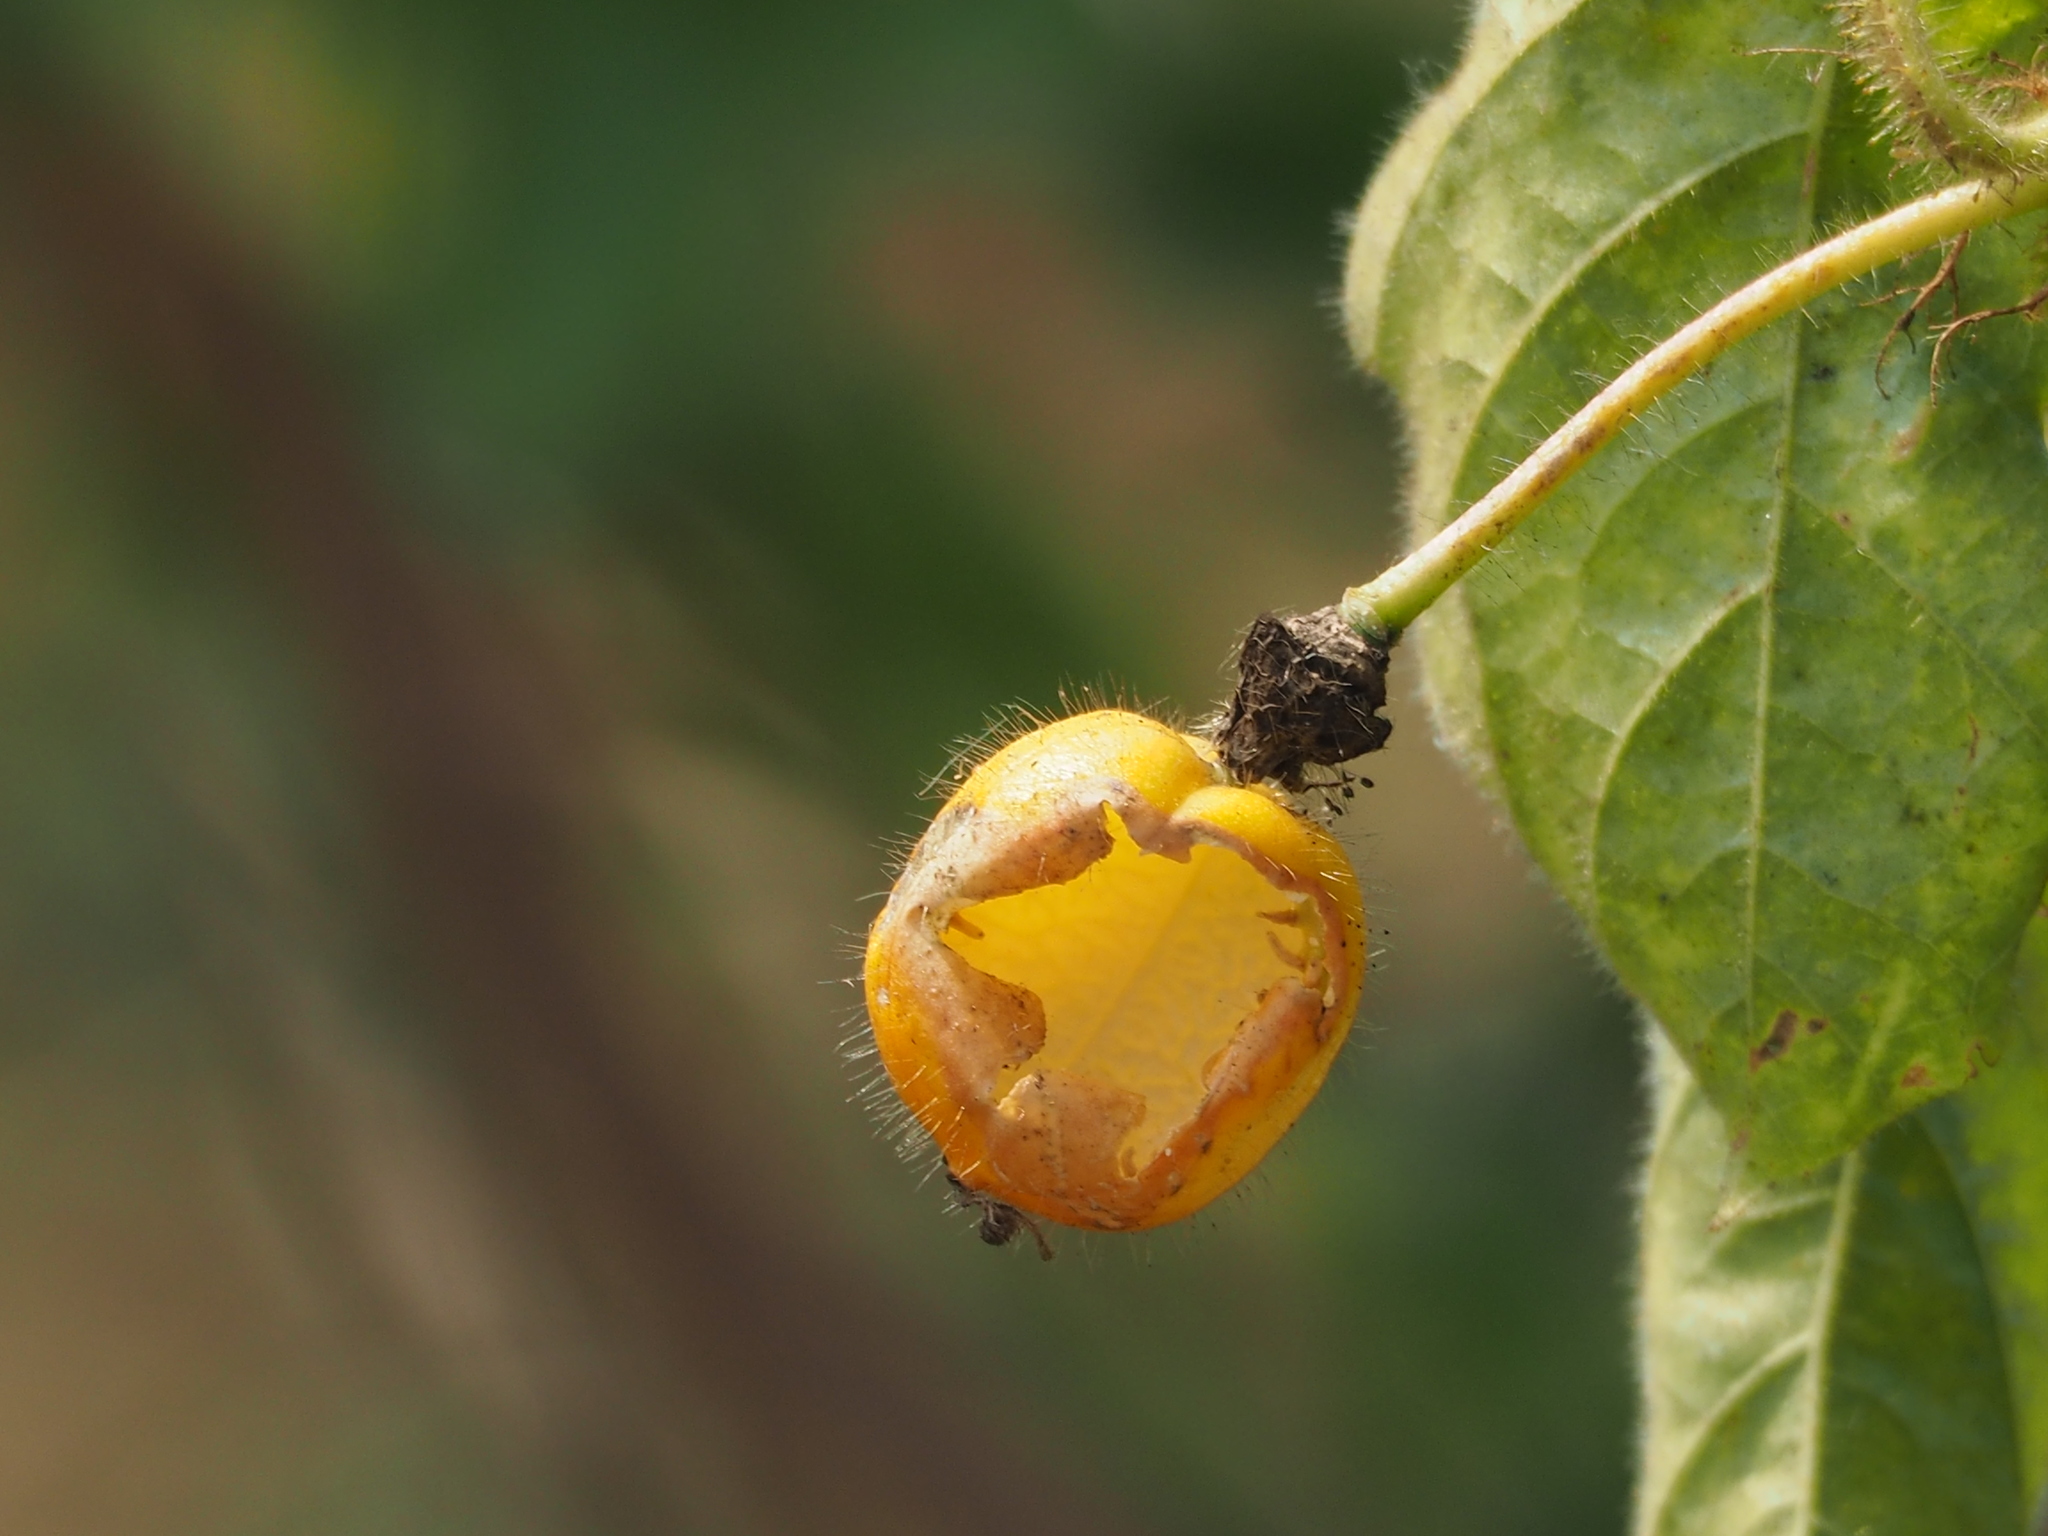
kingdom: Plantae
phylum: Tracheophyta
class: Magnoliopsida
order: Malpighiales
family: Passifloraceae
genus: Passiflora
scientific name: Passiflora vesicaria
